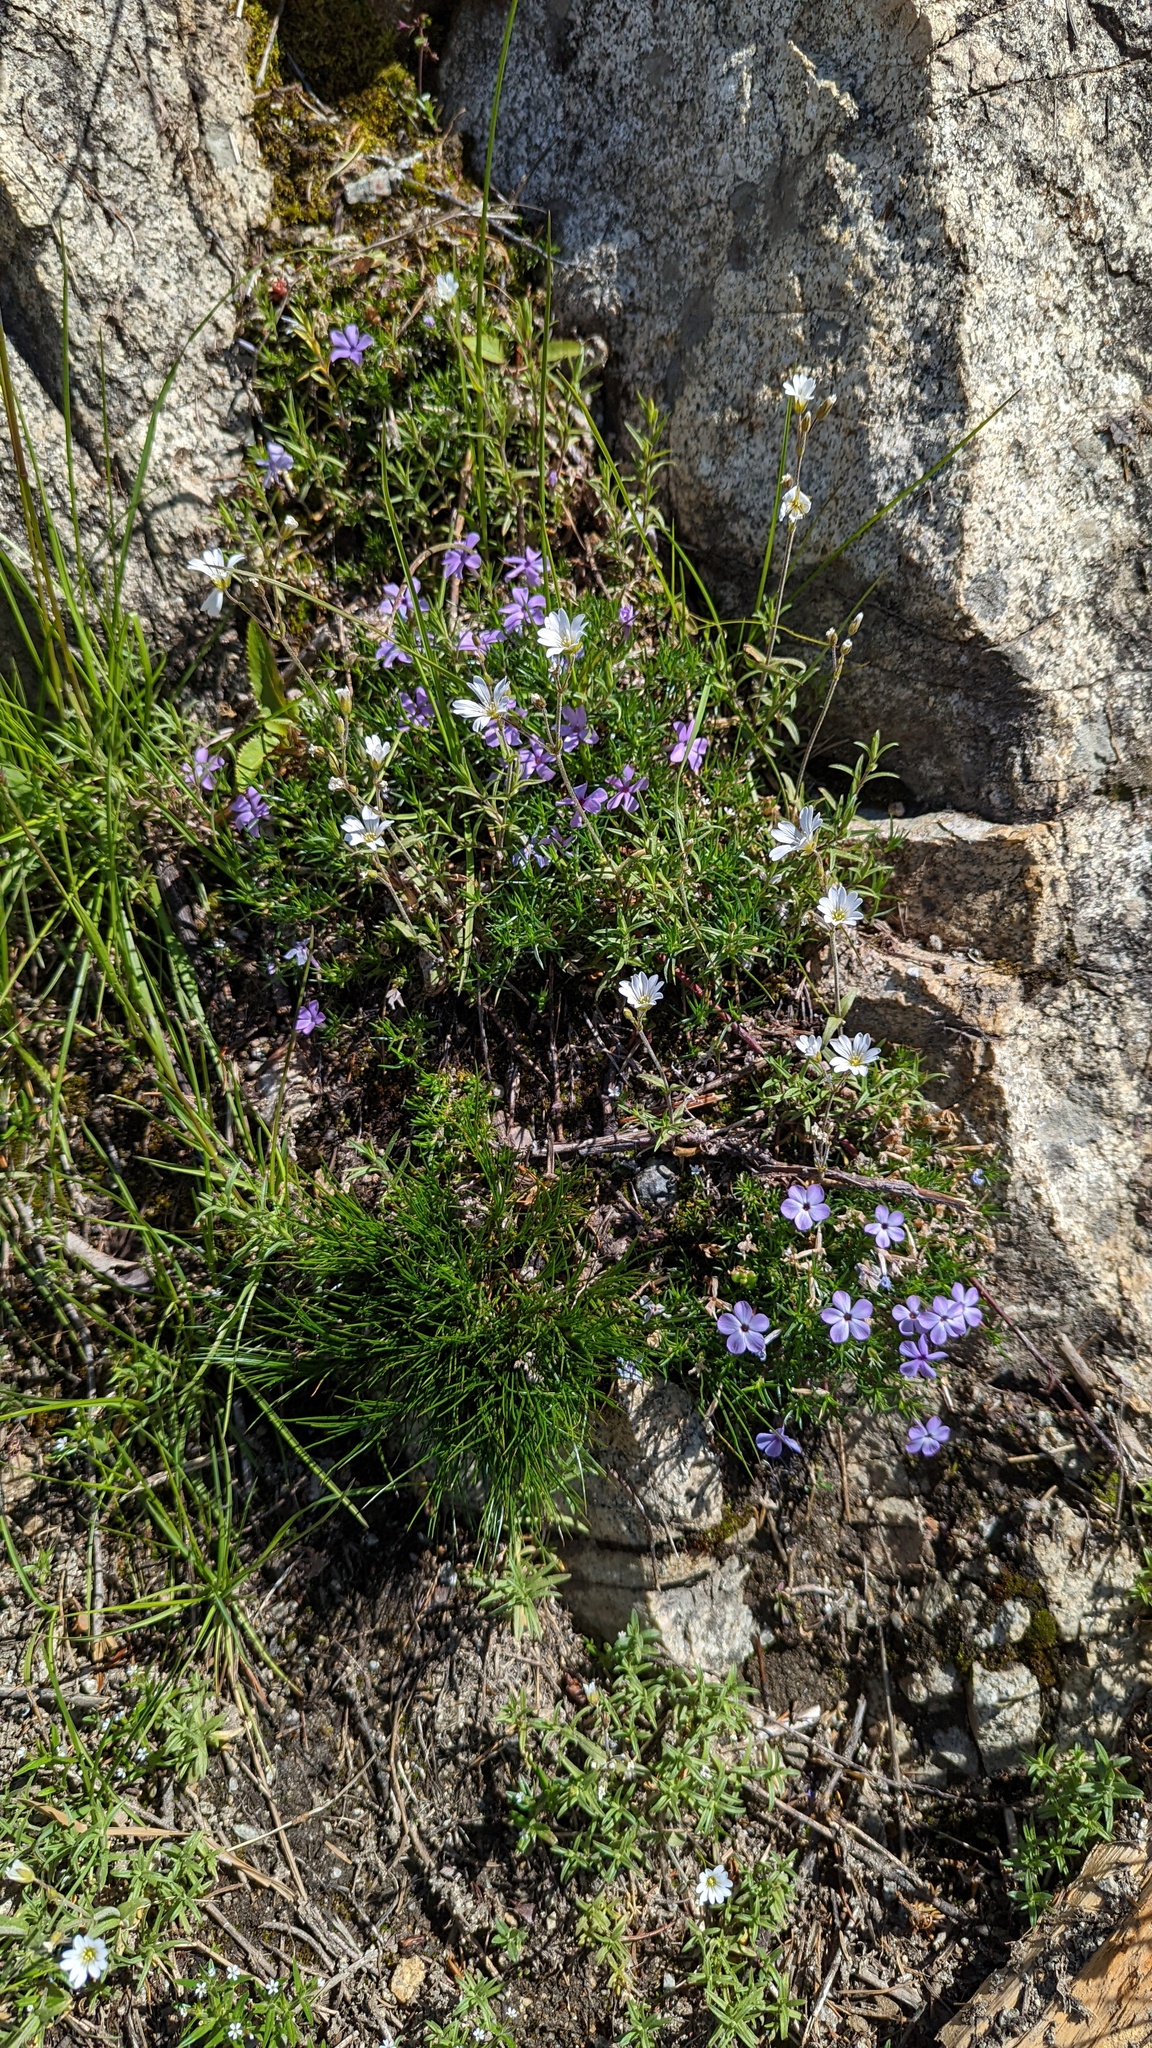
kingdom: Plantae
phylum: Tracheophyta
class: Magnoliopsida
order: Ericales
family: Polemoniaceae
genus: Phlox
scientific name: Phlox diffusa
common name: Mat phlox
